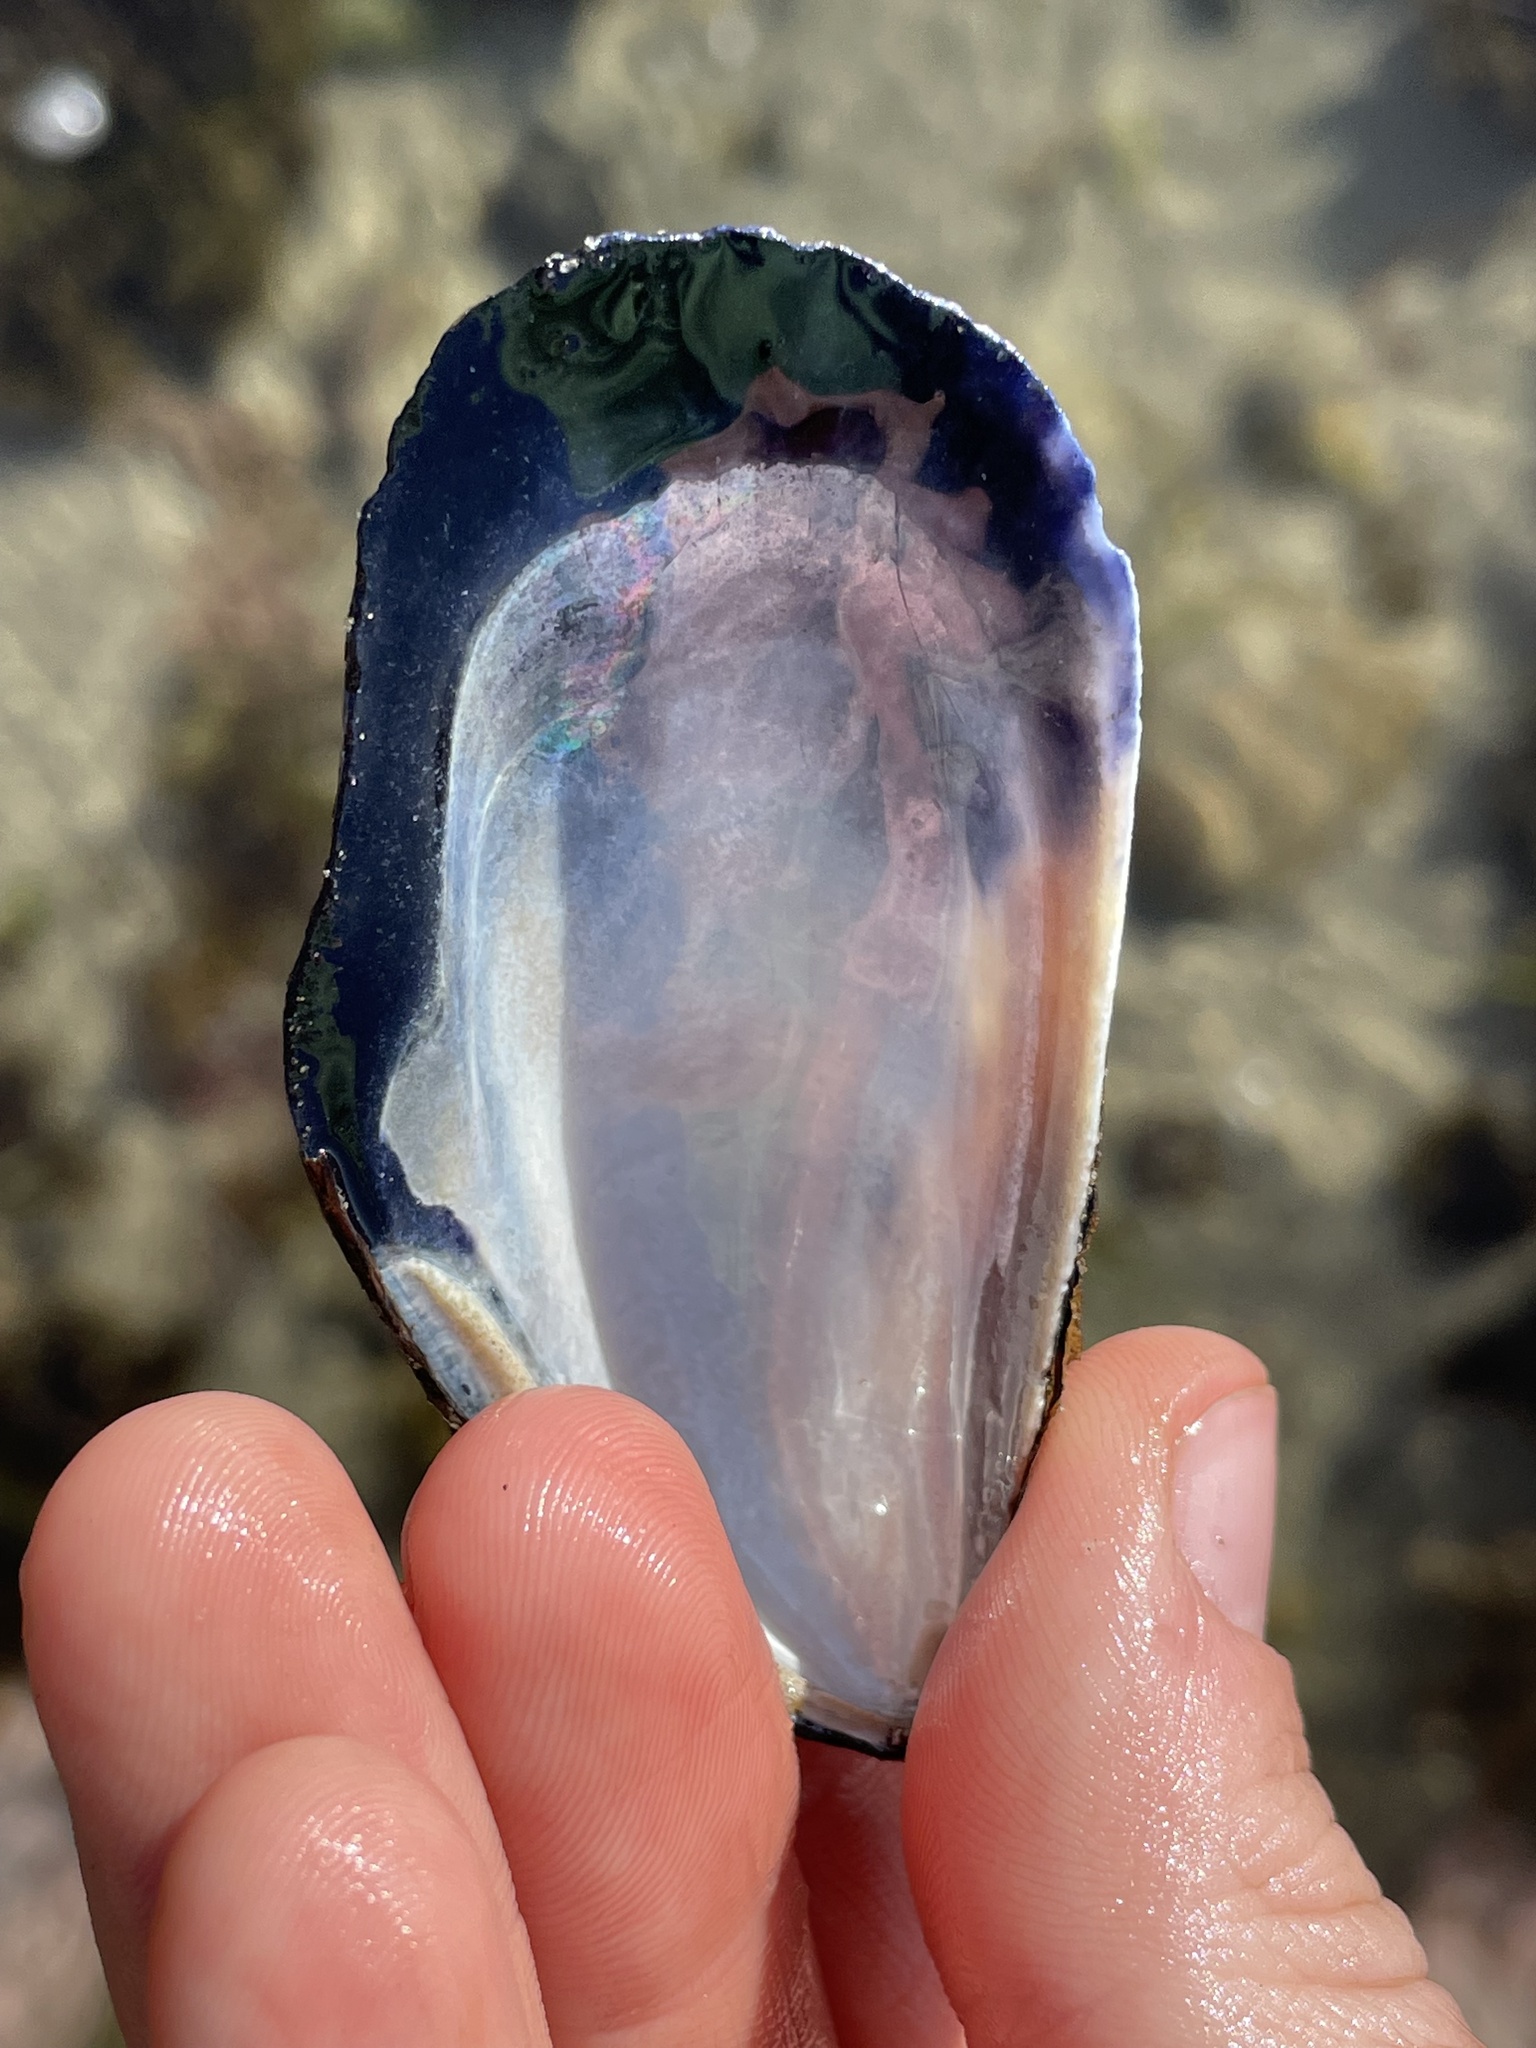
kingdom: Animalia
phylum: Mollusca
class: Bivalvia
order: Mytilida
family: Mytilidae
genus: Mytilus
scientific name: Mytilus californianus
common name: California mussel
